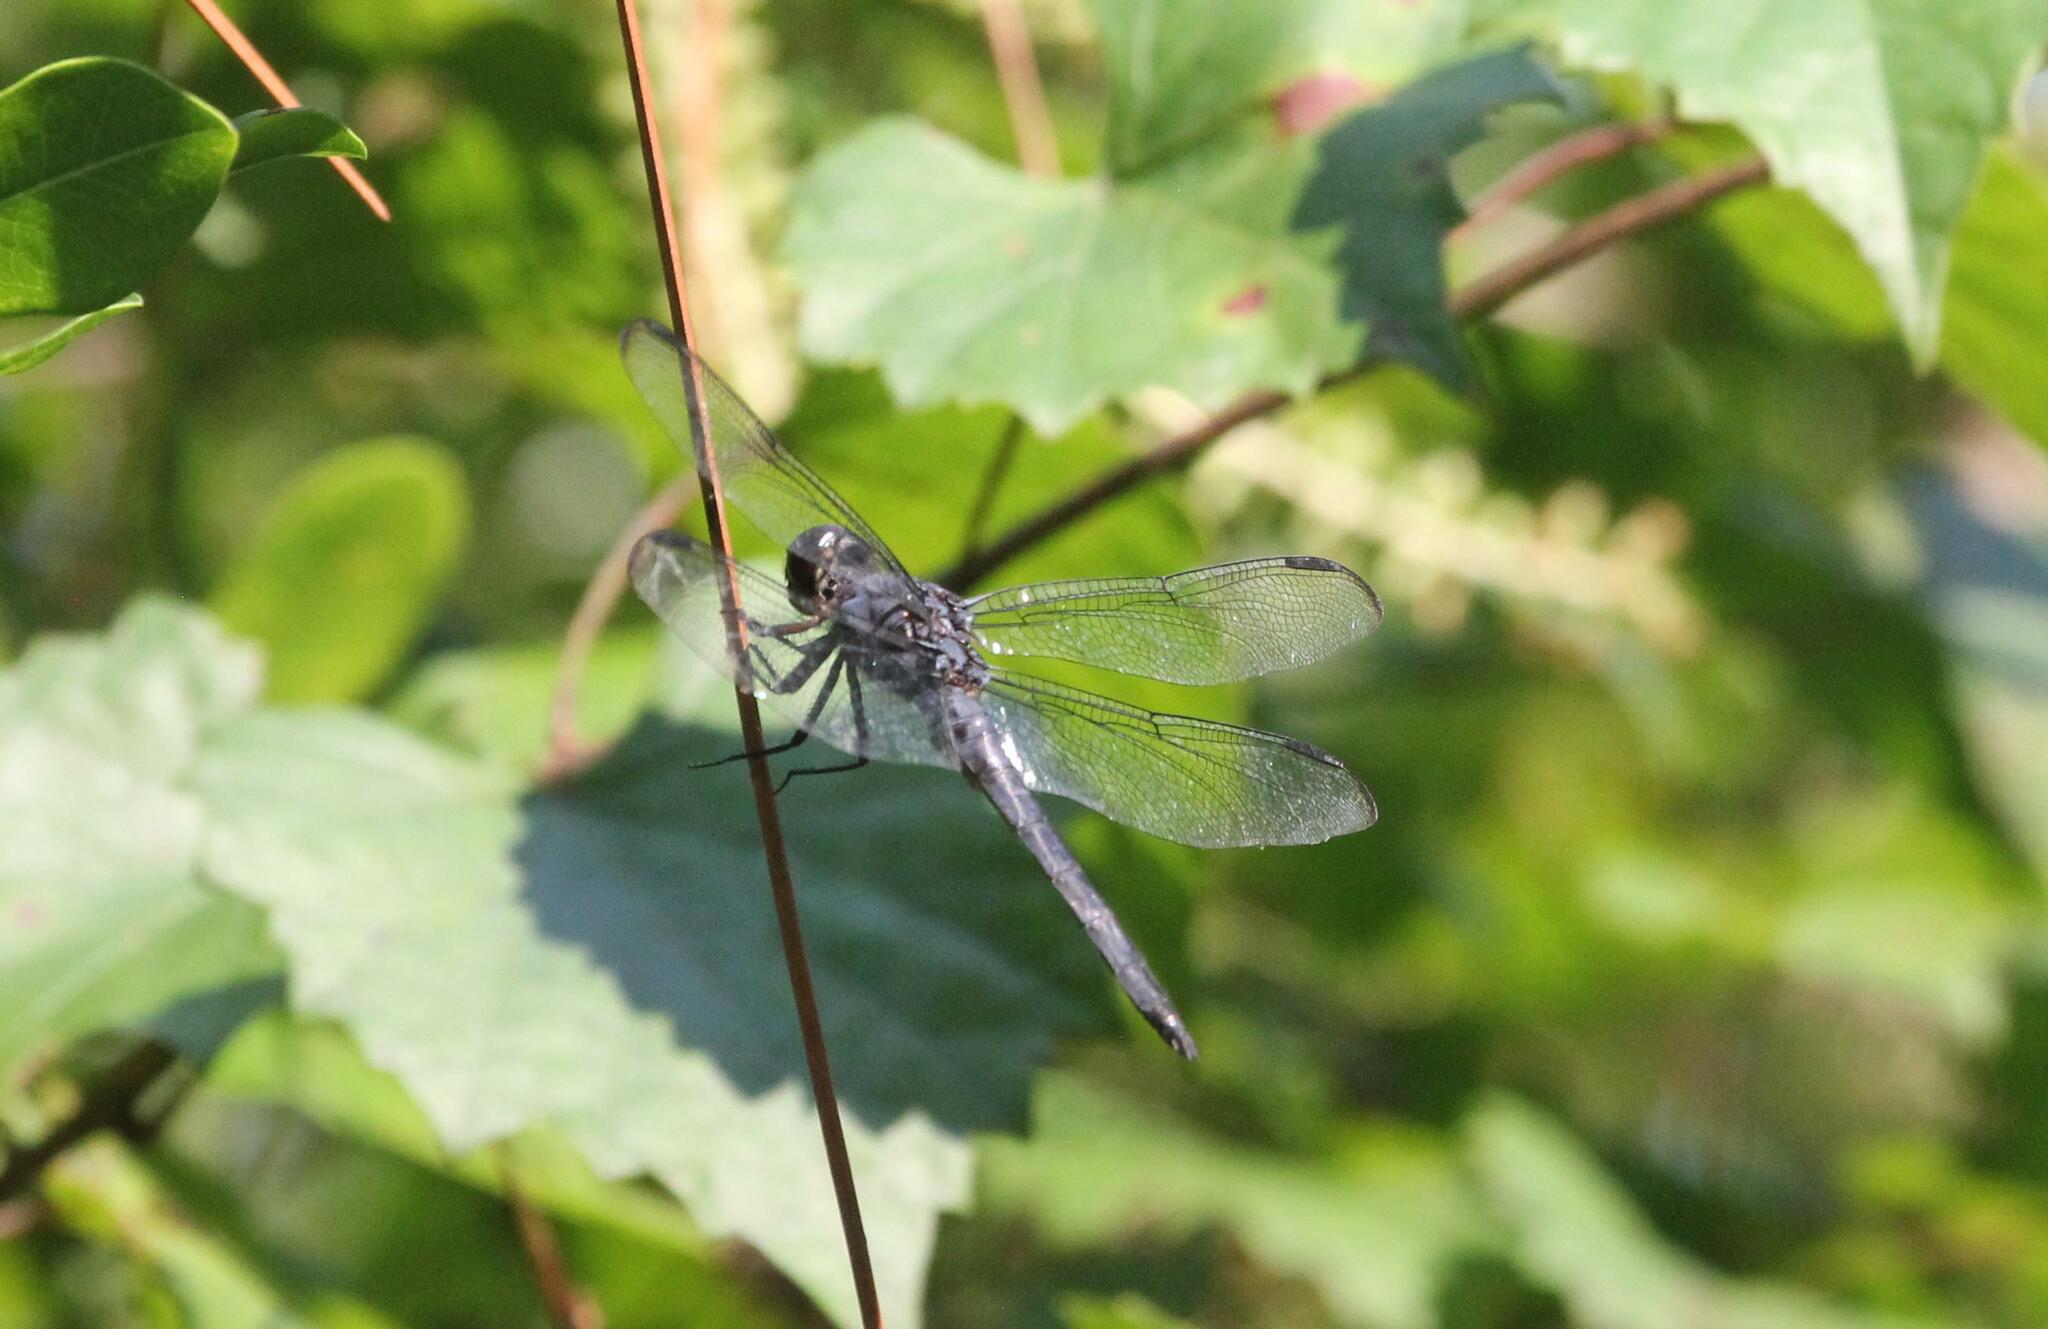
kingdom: Animalia
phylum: Arthropoda
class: Insecta
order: Odonata
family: Libellulidae
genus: Libellula
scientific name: Libellula incesta
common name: Slaty skimmer
